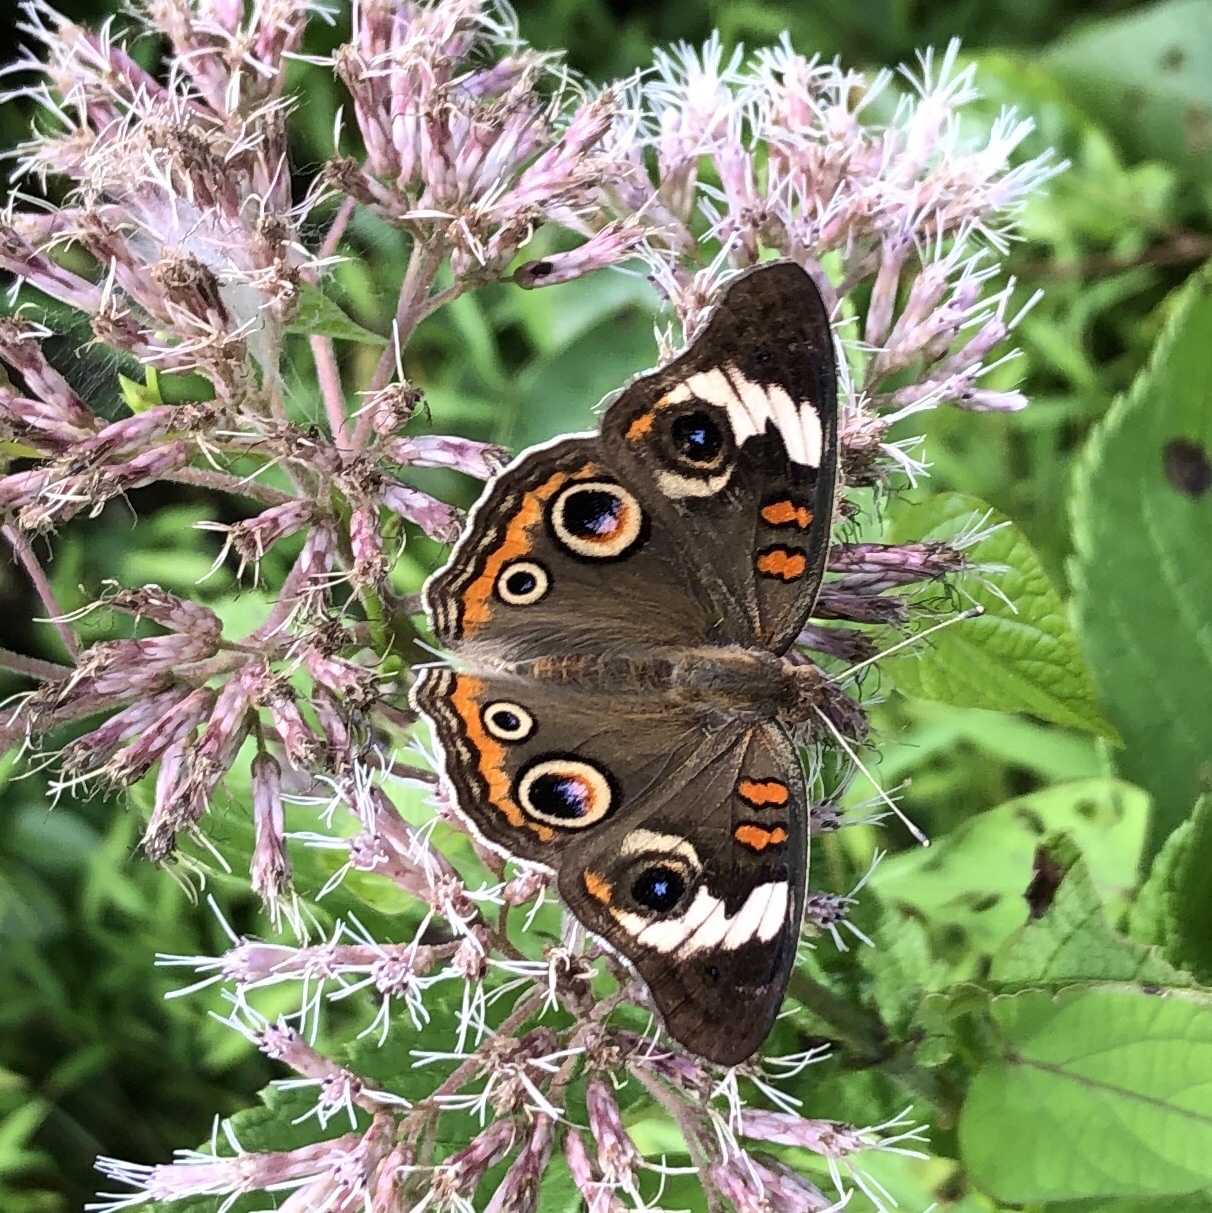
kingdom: Animalia
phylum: Arthropoda
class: Insecta
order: Lepidoptera
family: Nymphalidae
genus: Junonia
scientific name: Junonia coenia
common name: Common buckeye
